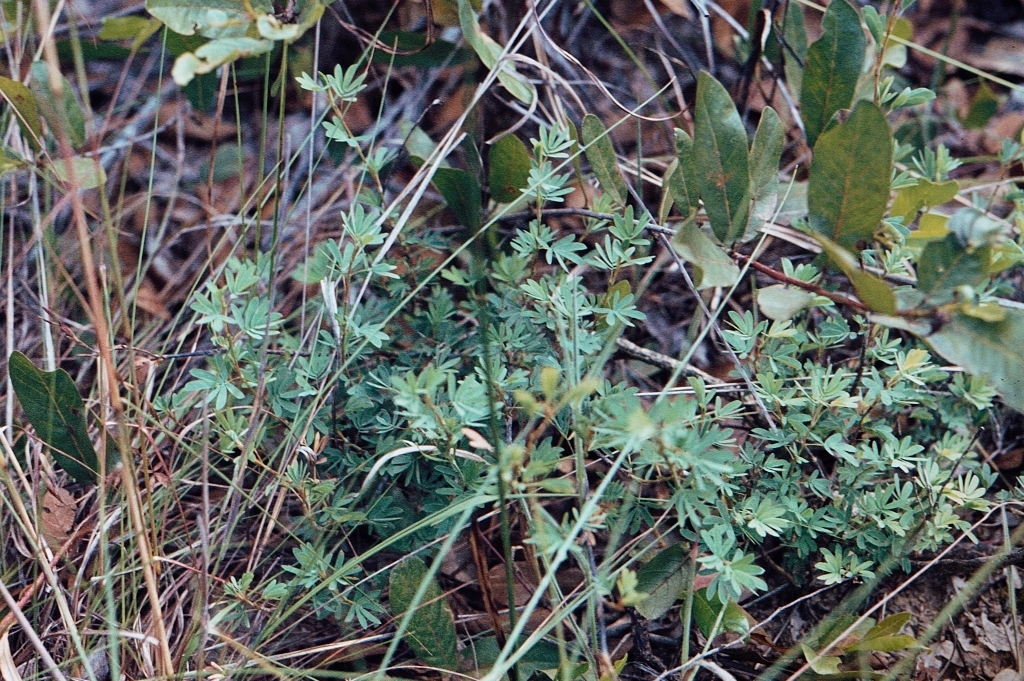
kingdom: Plantae
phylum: Tracheophyta
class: Magnoliopsida
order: Fabales
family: Fabaceae
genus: Kotschya
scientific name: Kotschya strobilantha
